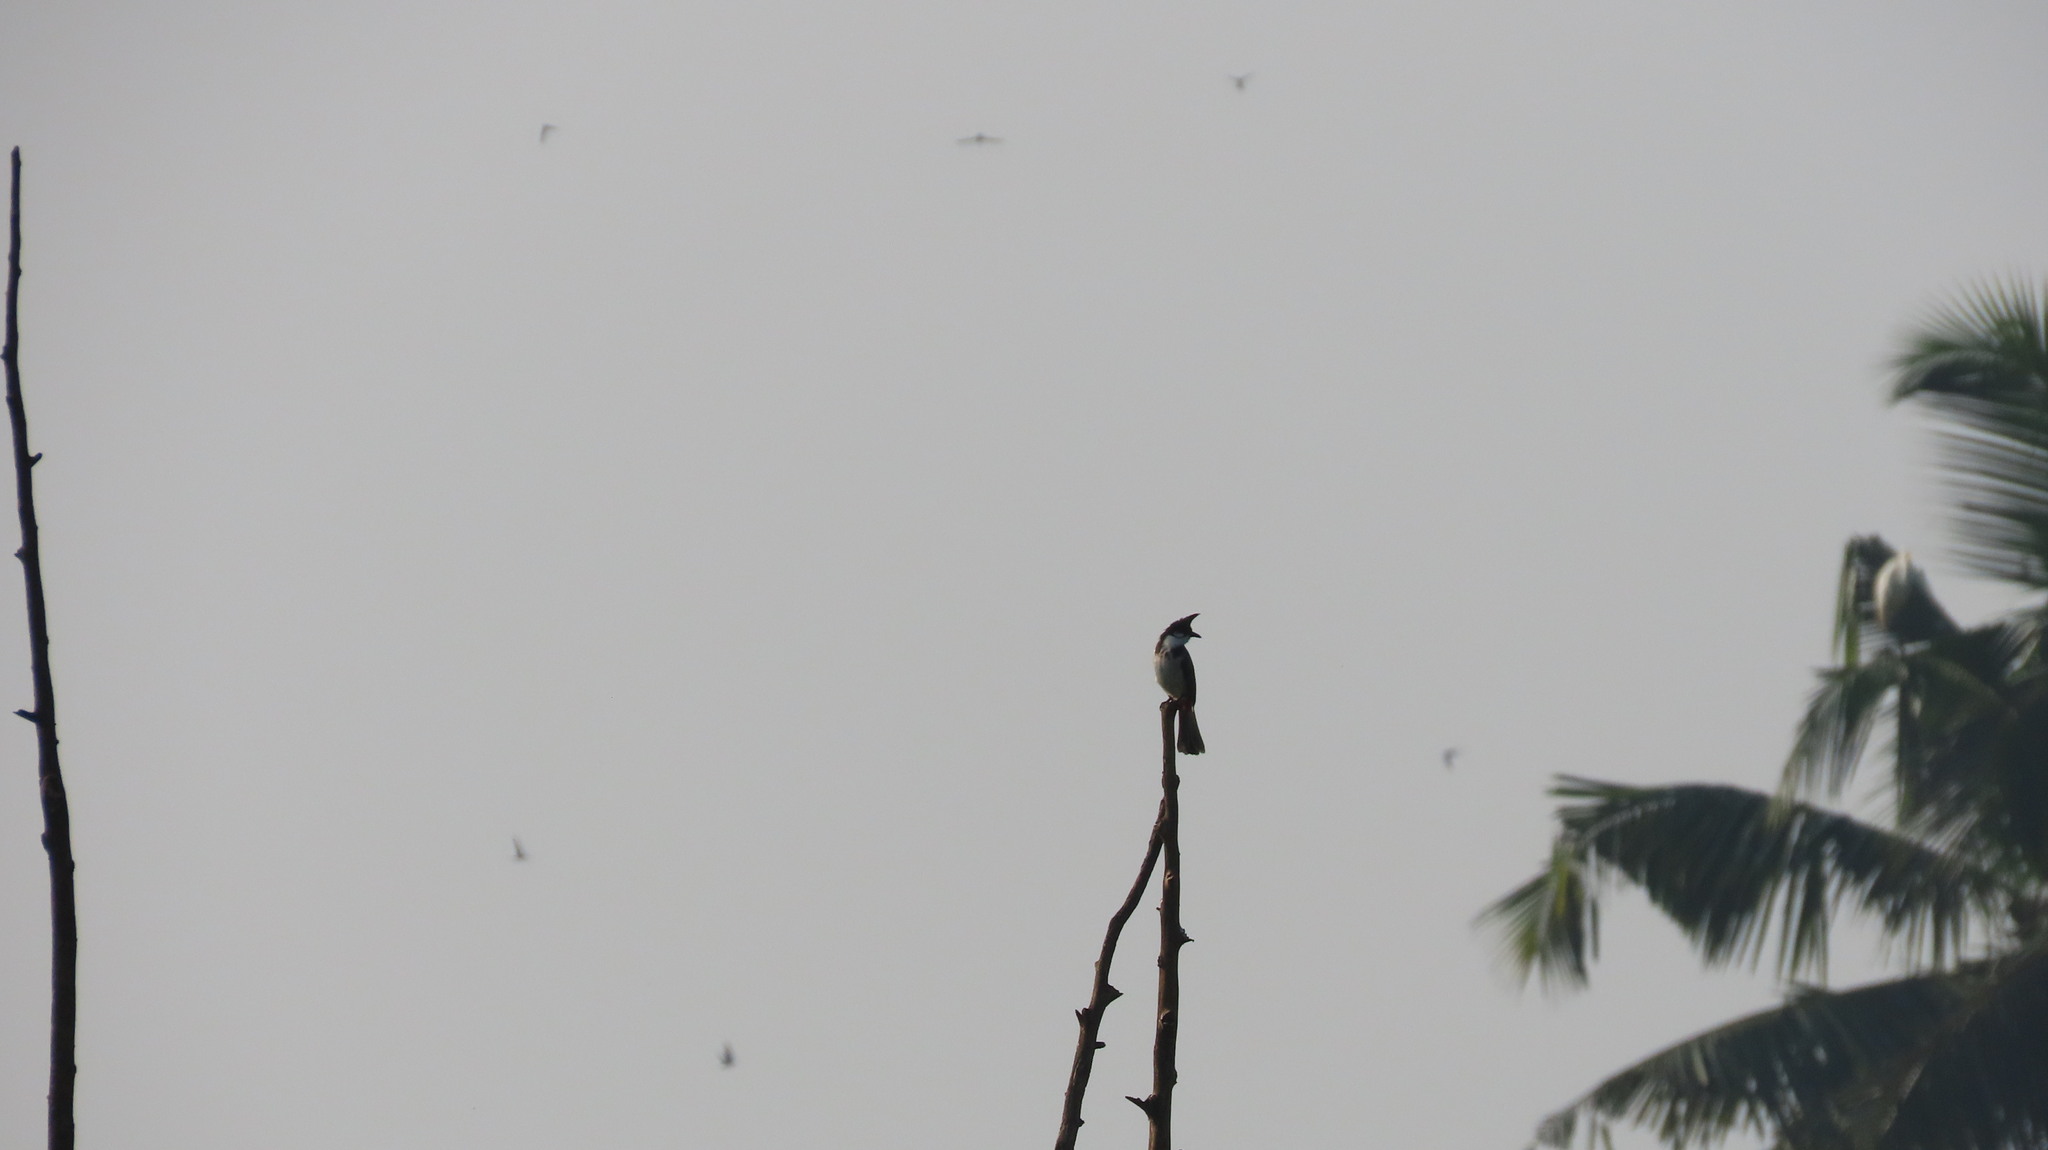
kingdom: Animalia
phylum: Chordata
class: Aves
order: Passeriformes
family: Pycnonotidae
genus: Pycnonotus
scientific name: Pycnonotus jocosus
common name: Red-whiskered bulbul
